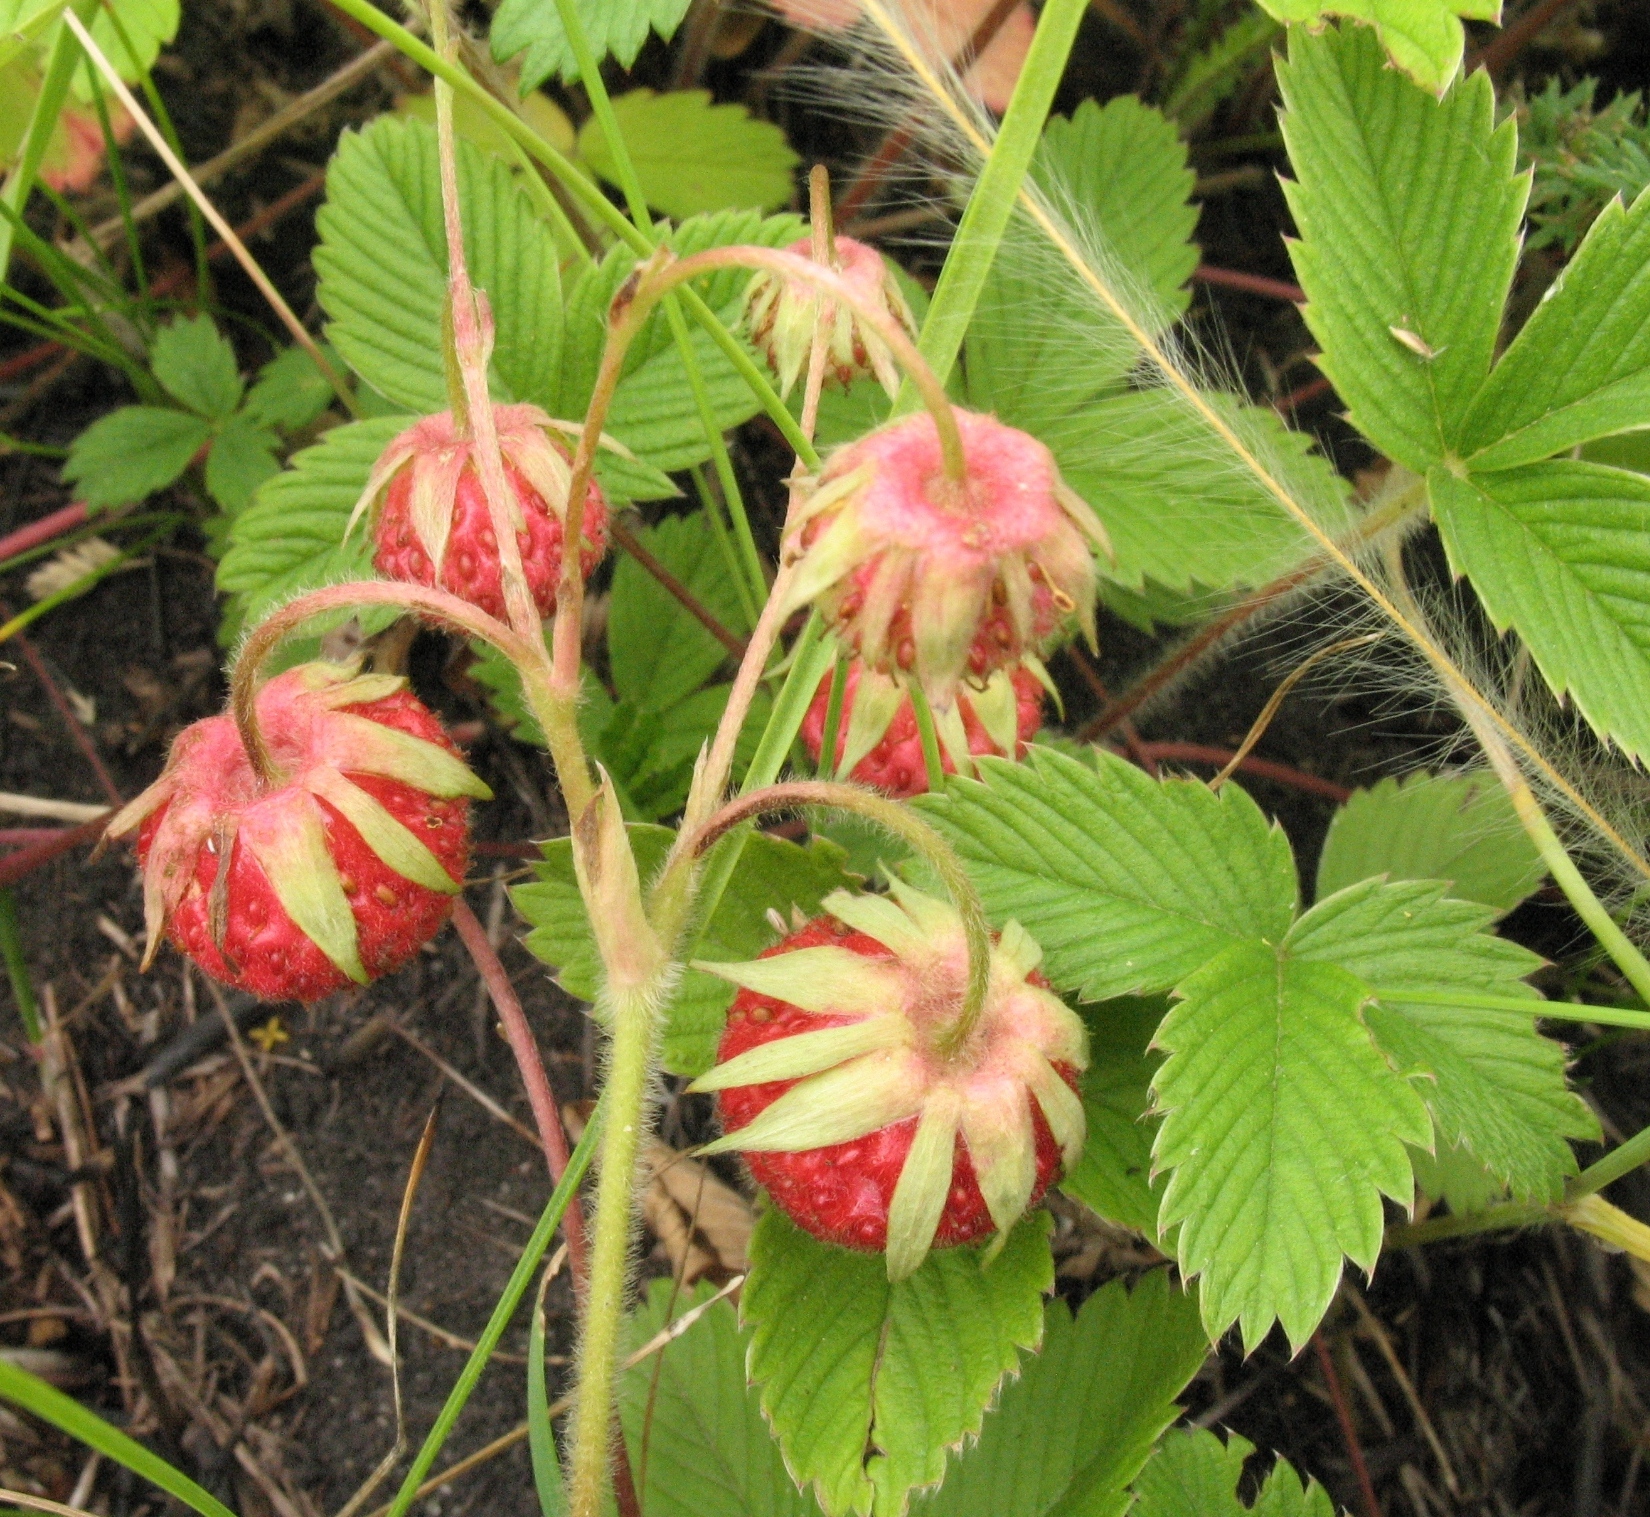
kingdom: Plantae
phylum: Tracheophyta
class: Magnoliopsida
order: Rosales
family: Rosaceae
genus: Fragaria
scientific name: Fragaria viridis
